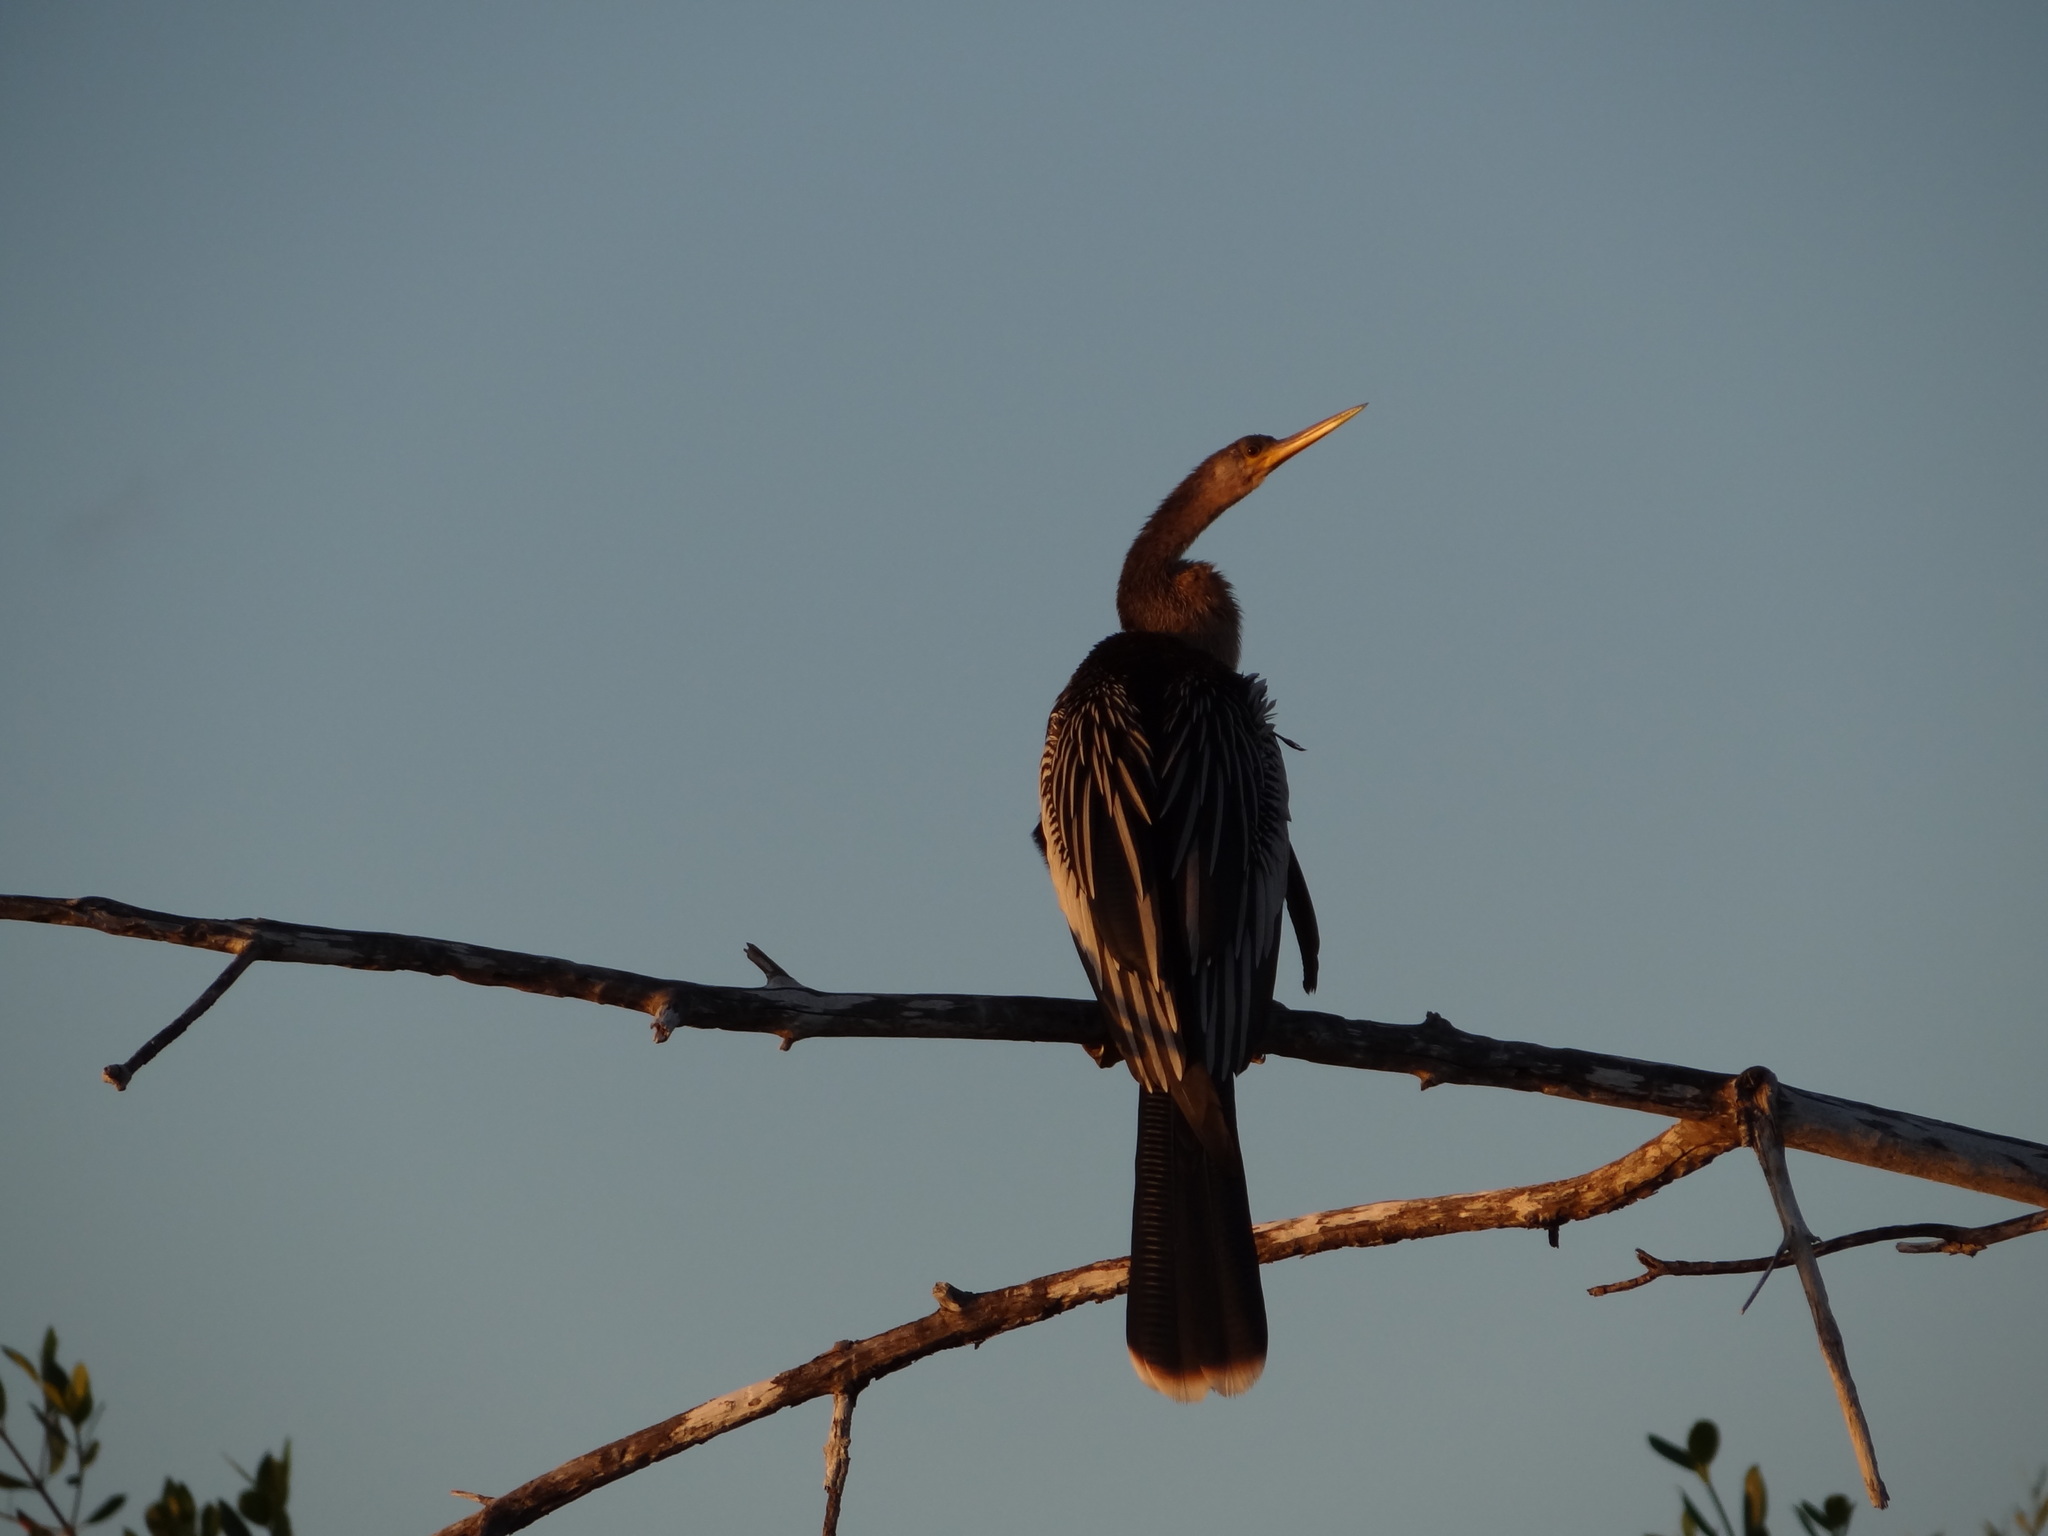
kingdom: Animalia
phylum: Chordata
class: Aves
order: Suliformes
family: Anhingidae
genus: Anhinga
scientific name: Anhinga anhinga
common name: Anhinga
